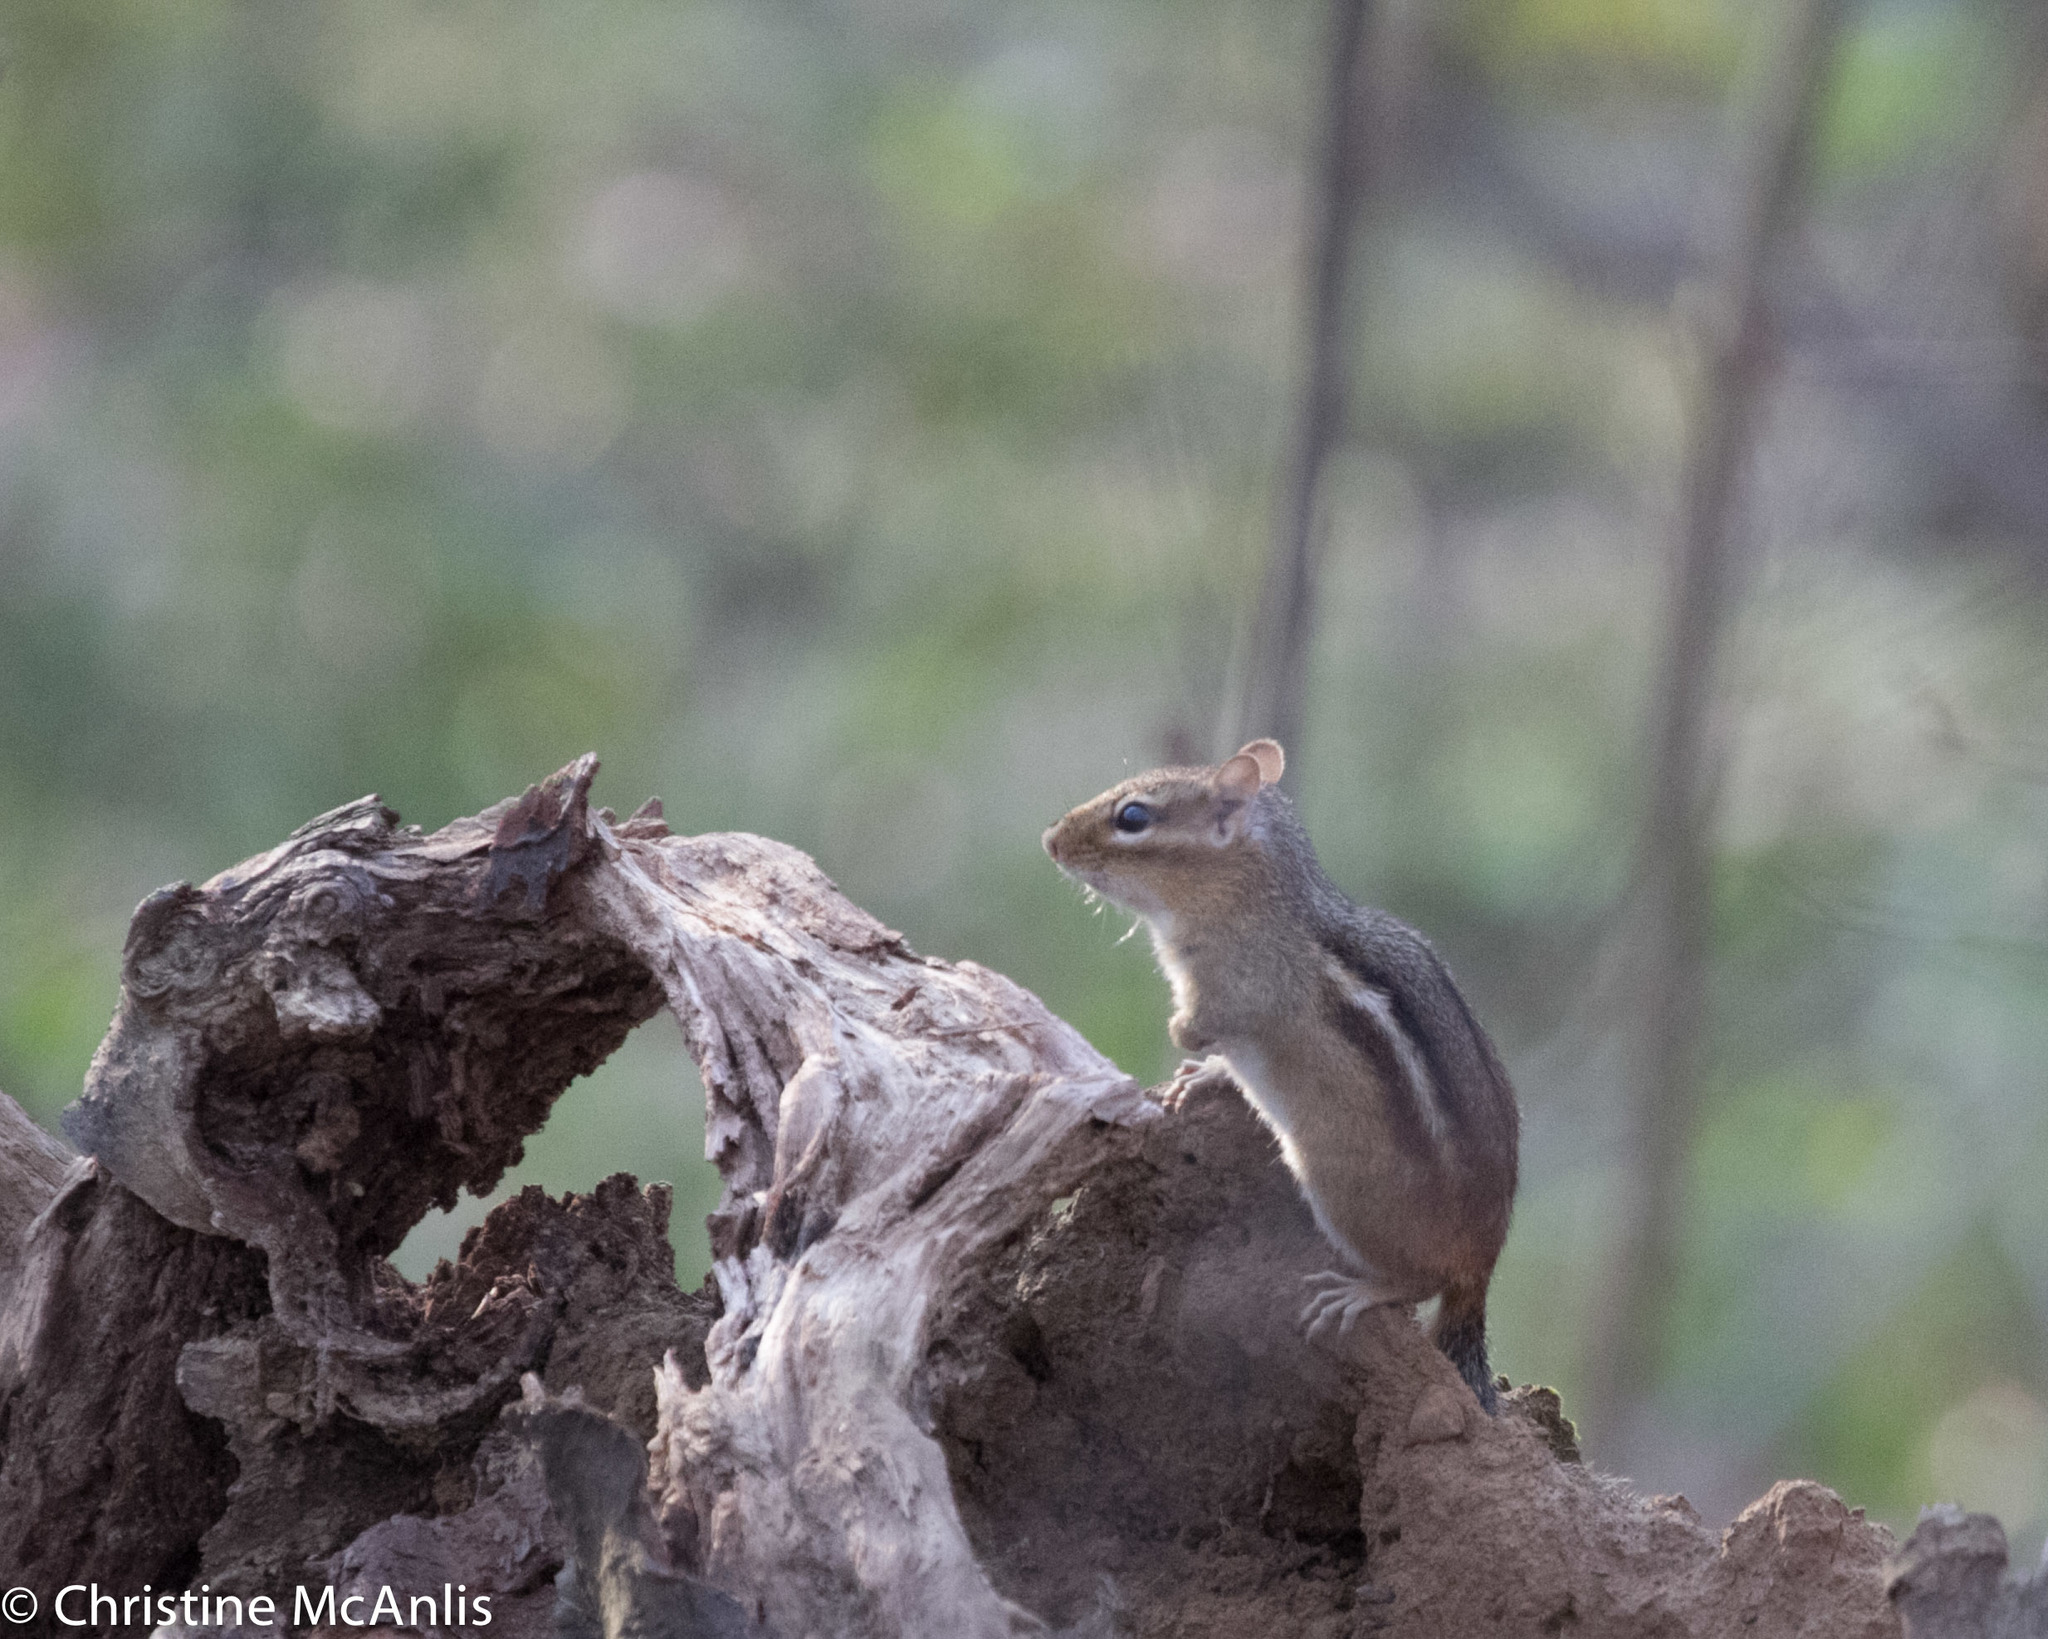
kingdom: Animalia
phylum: Chordata
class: Mammalia
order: Rodentia
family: Sciuridae
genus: Tamias
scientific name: Tamias striatus
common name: Eastern chipmunk
